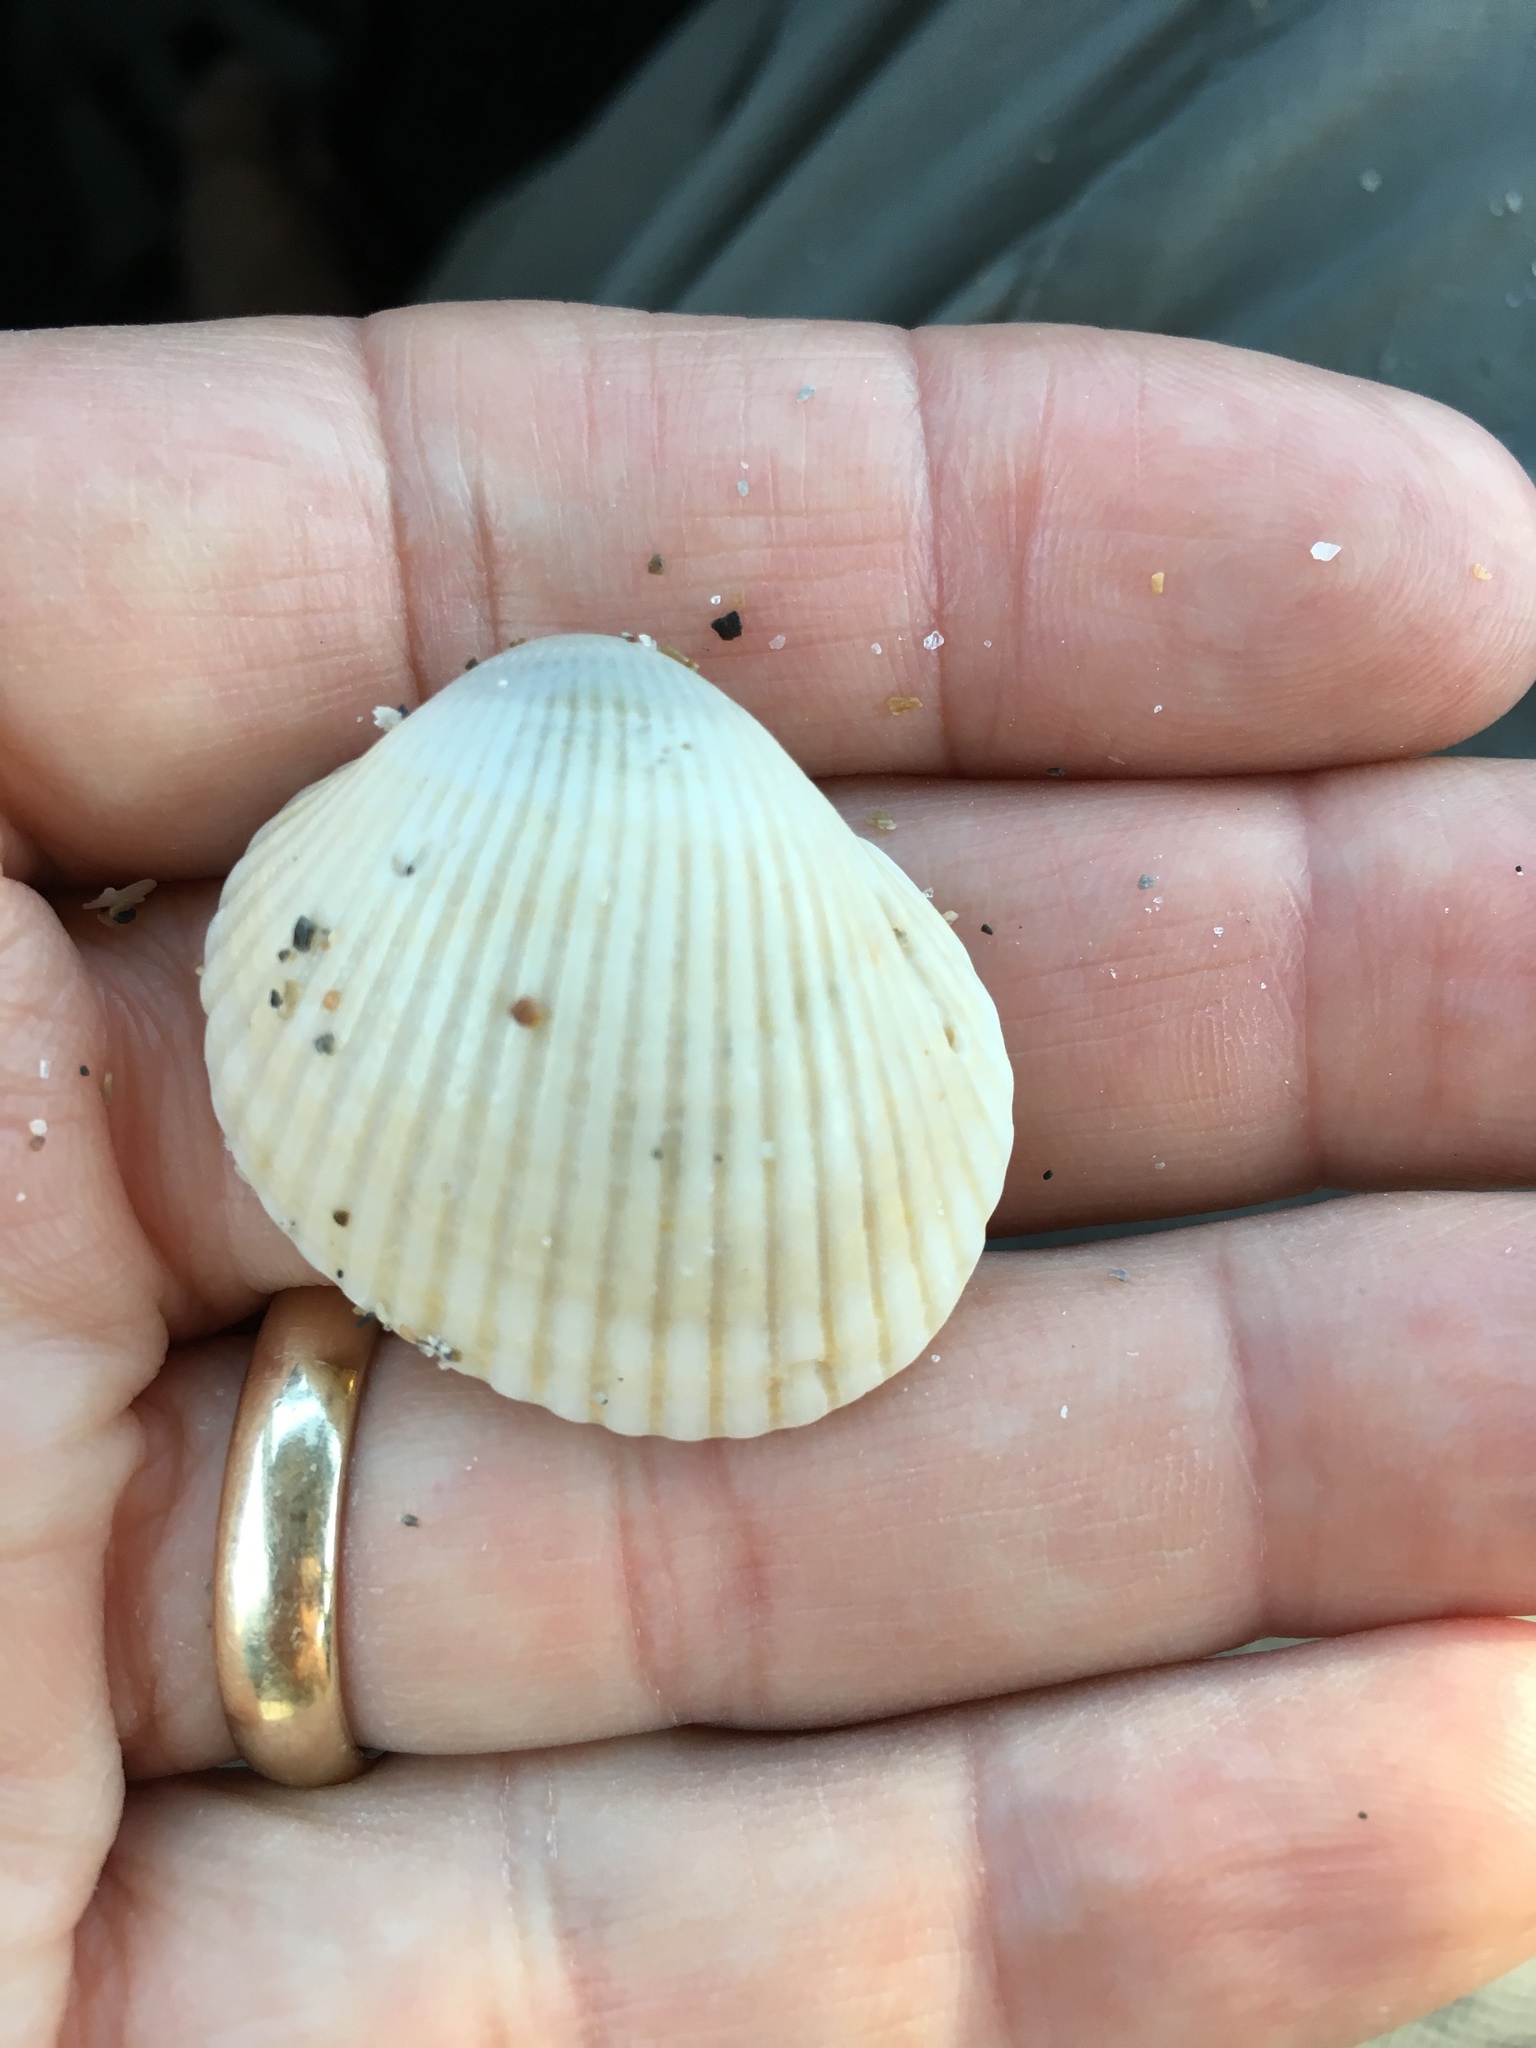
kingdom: Animalia
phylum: Mollusca
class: Bivalvia
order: Arcida
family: Arcidae
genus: Lunarca
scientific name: Lunarca ovalis
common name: Blood ark
